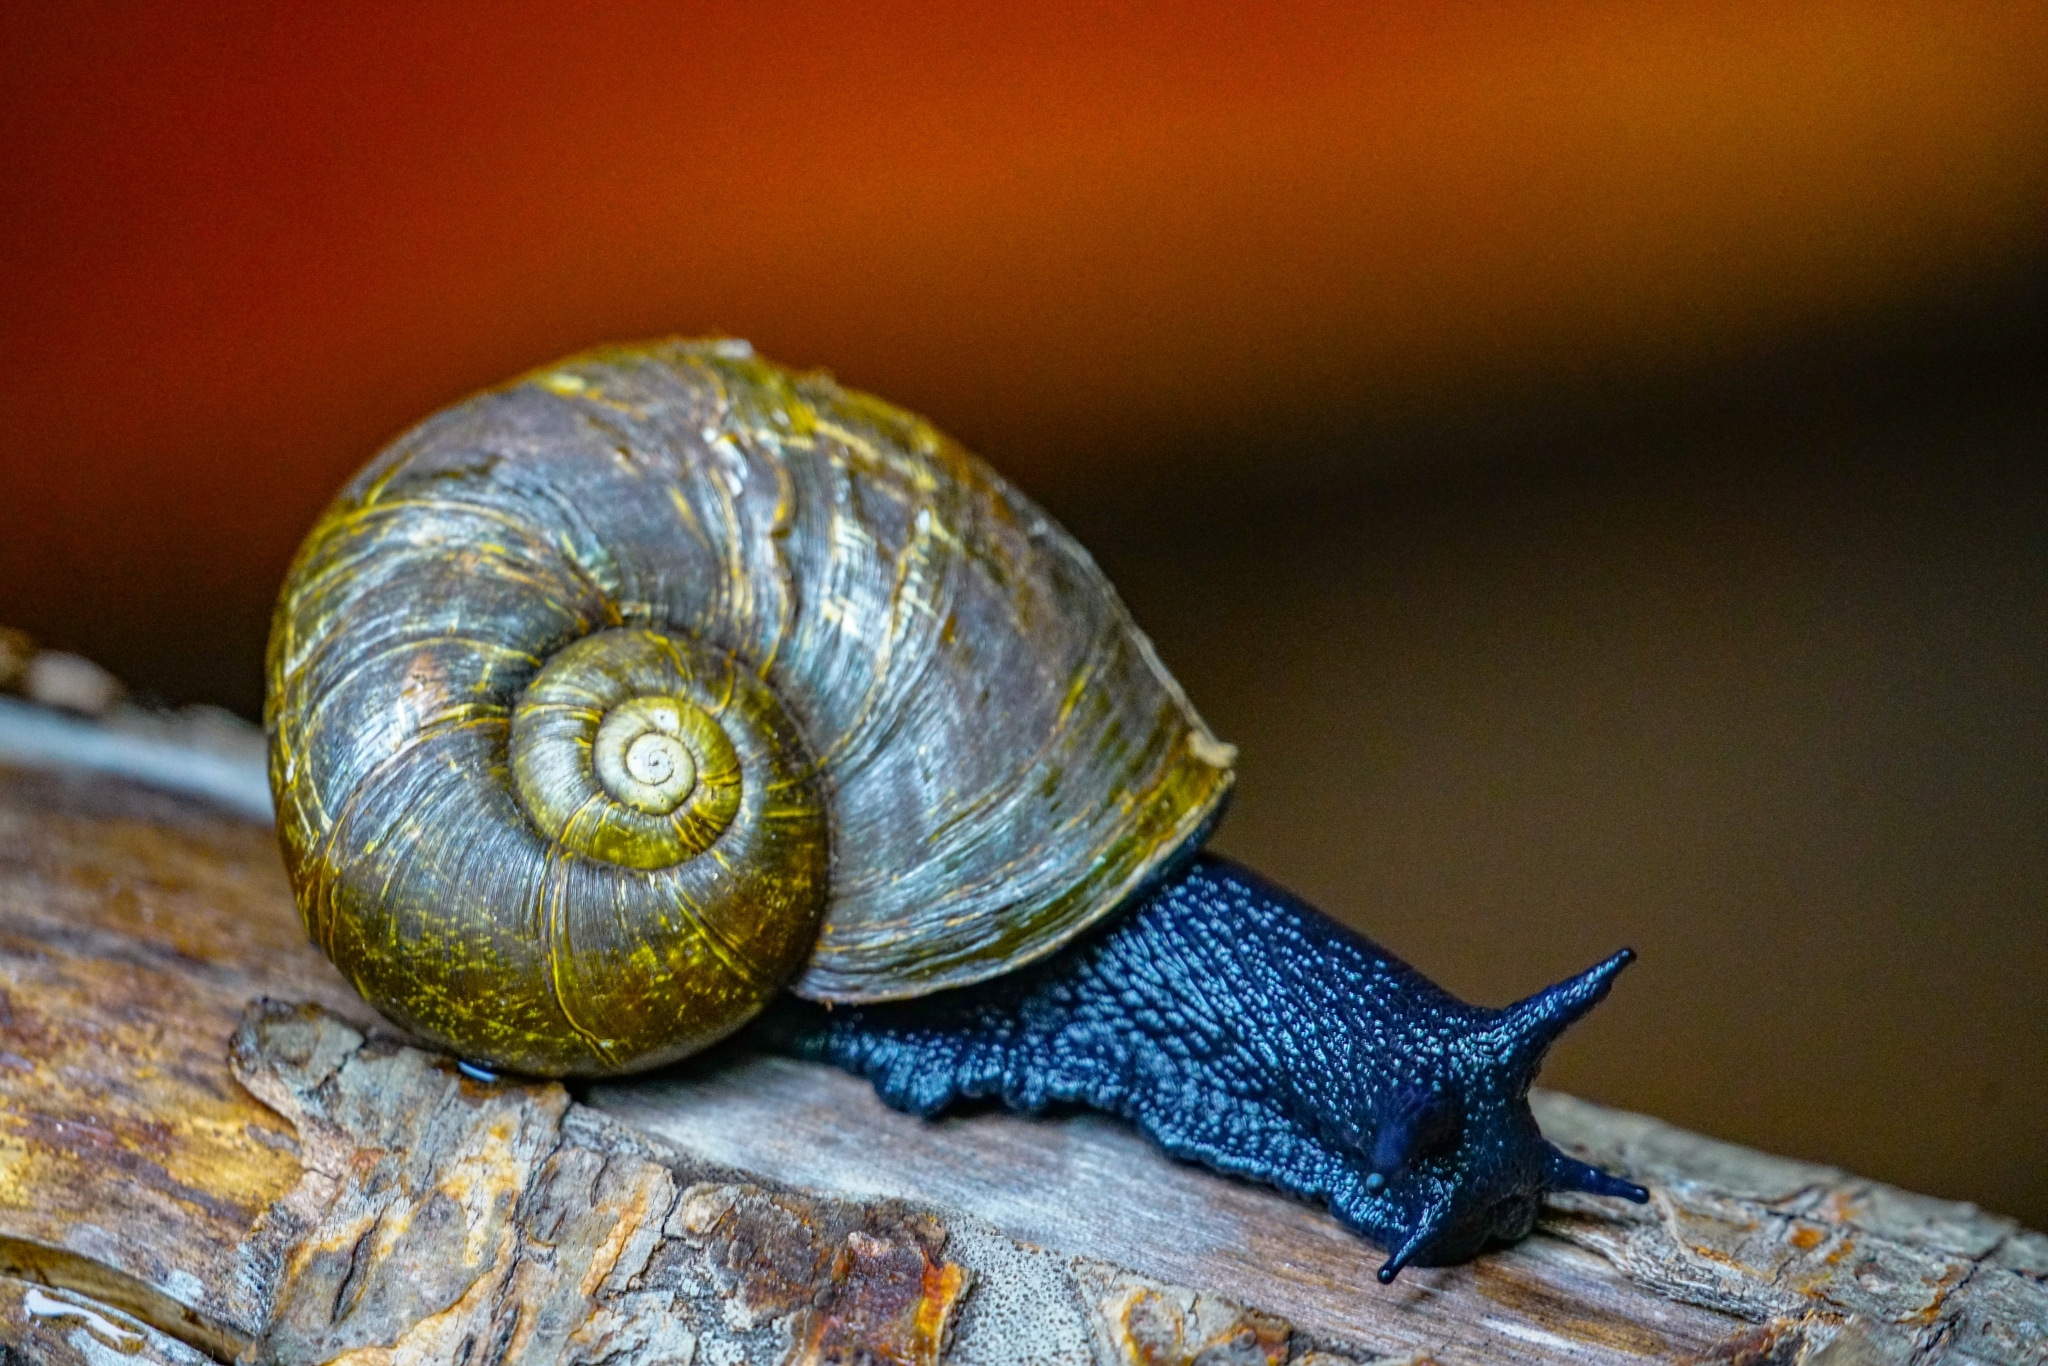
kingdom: Animalia
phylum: Mollusca
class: Gastropoda
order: Stylommatophora
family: Macrocyclidae
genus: Macrocyclis
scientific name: Macrocyclis peruvianus
